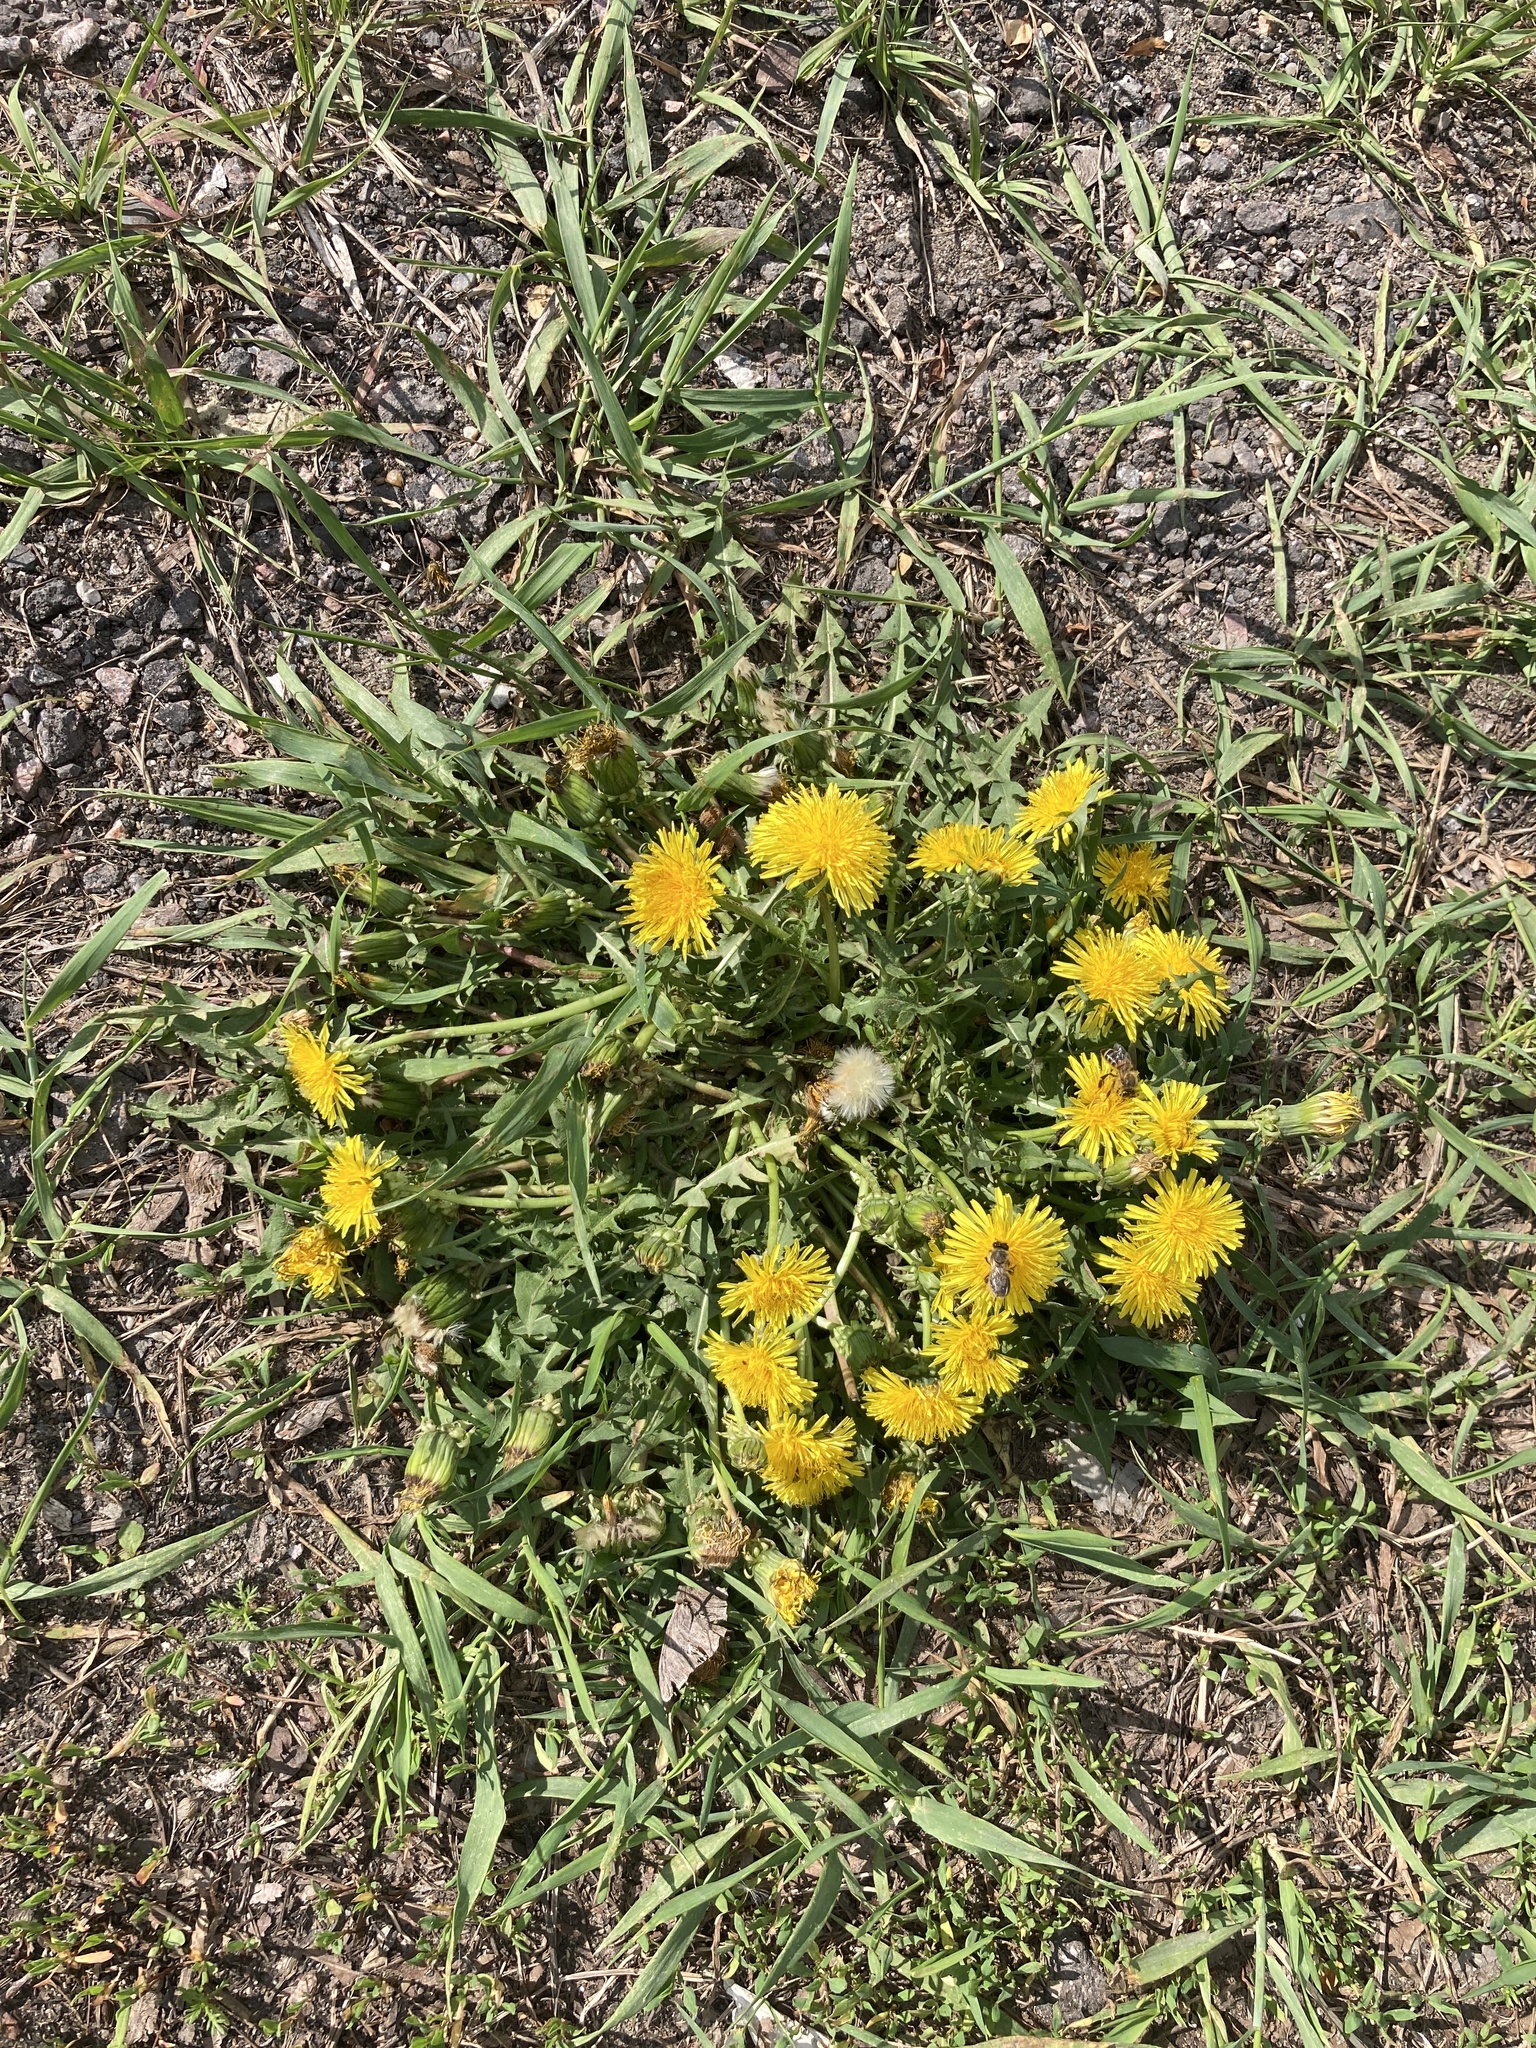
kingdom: Plantae
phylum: Tracheophyta
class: Magnoliopsida
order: Asterales
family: Asteraceae
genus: Taraxacum
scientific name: Taraxacum officinale
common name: Common dandelion
